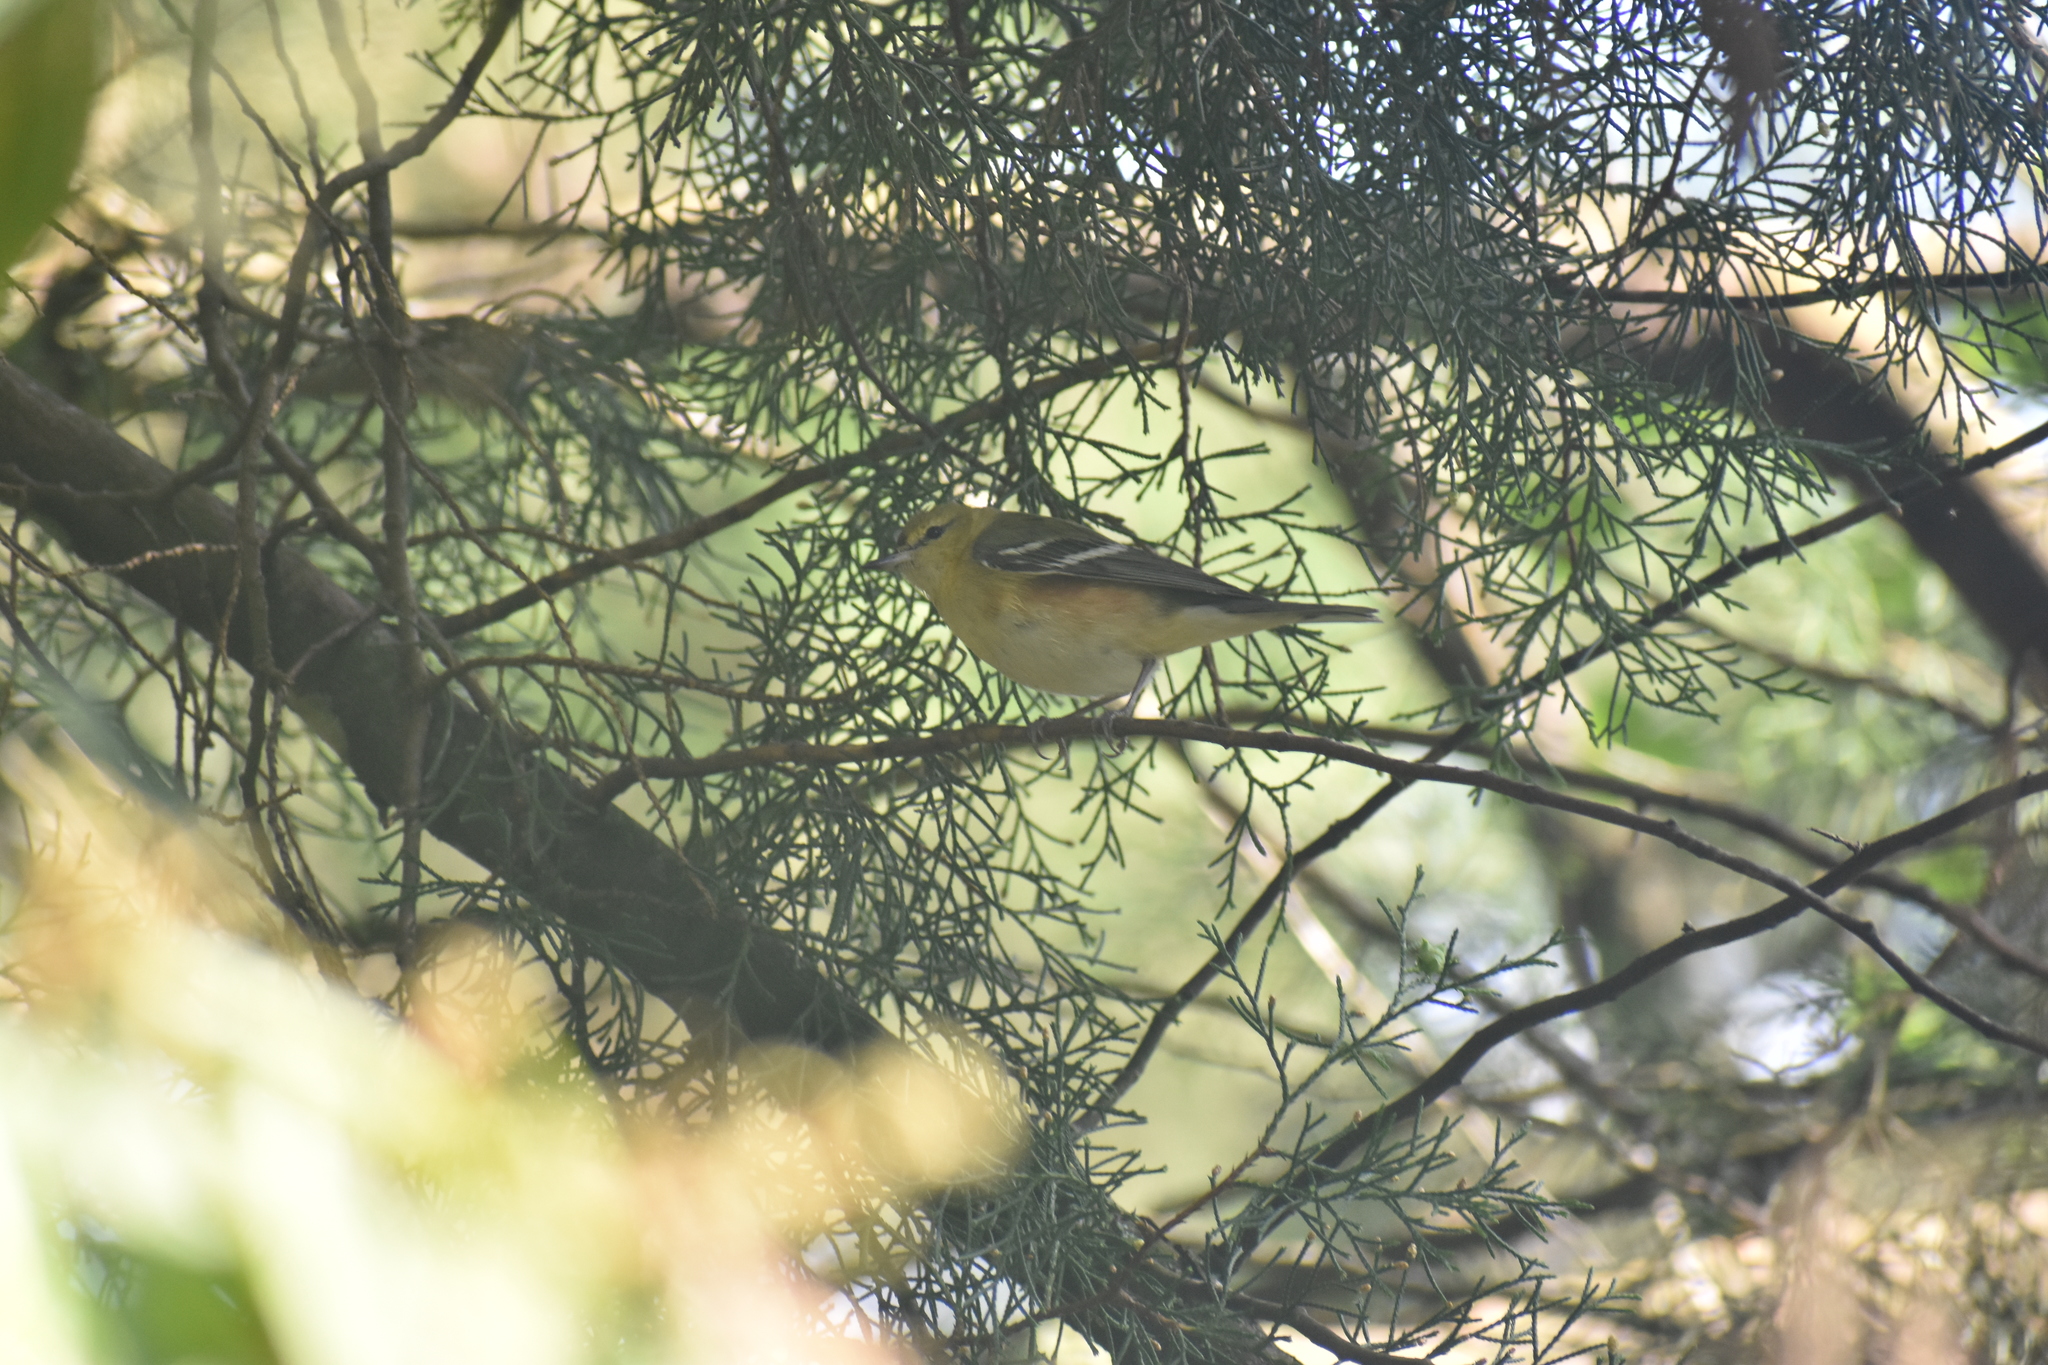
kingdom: Animalia
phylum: Chordata
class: Aves
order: Passeriformes
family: Parulidae
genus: Setophaga
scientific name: Setophaga castanea
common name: Bay-breasted warbler
